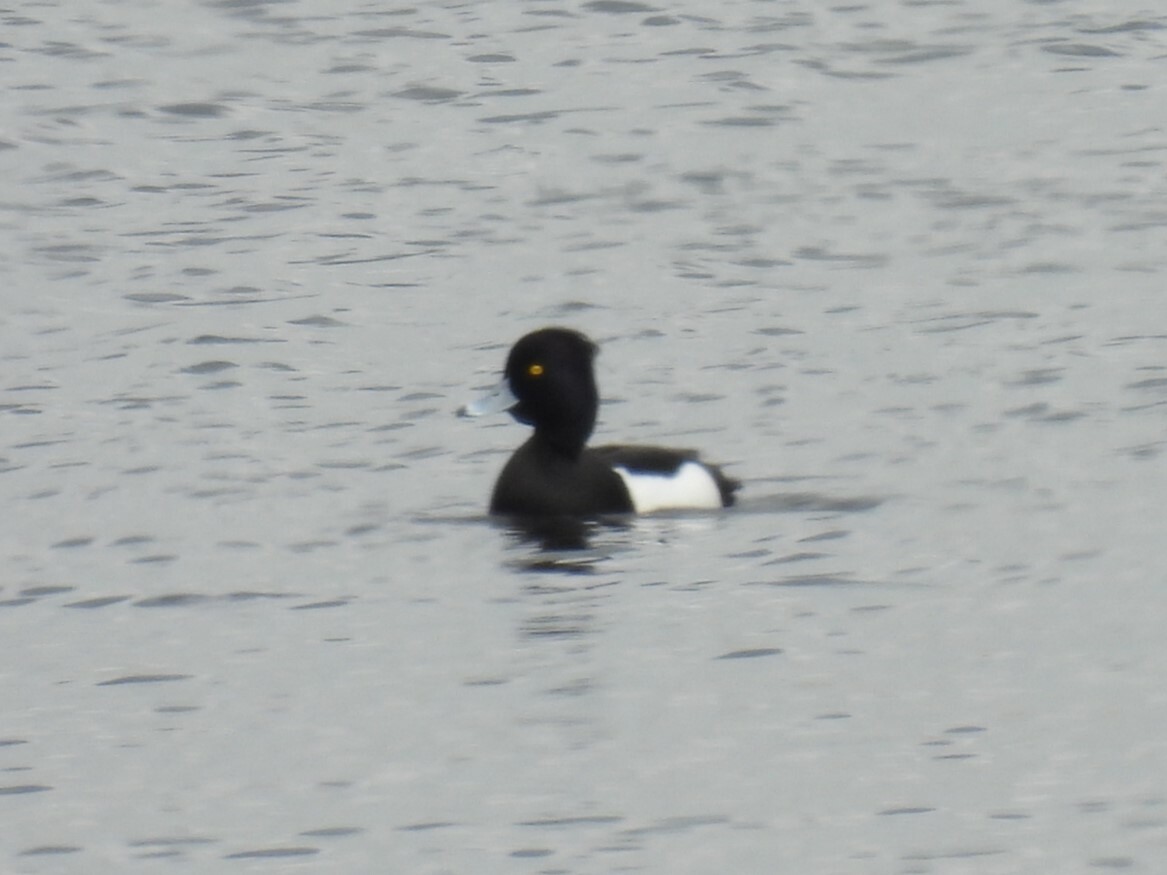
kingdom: Animalia
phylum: Chordata
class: Aves
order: Anseriformes
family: Anatidae
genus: Aythya
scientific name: Aythya fuligula
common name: Tufted duck
